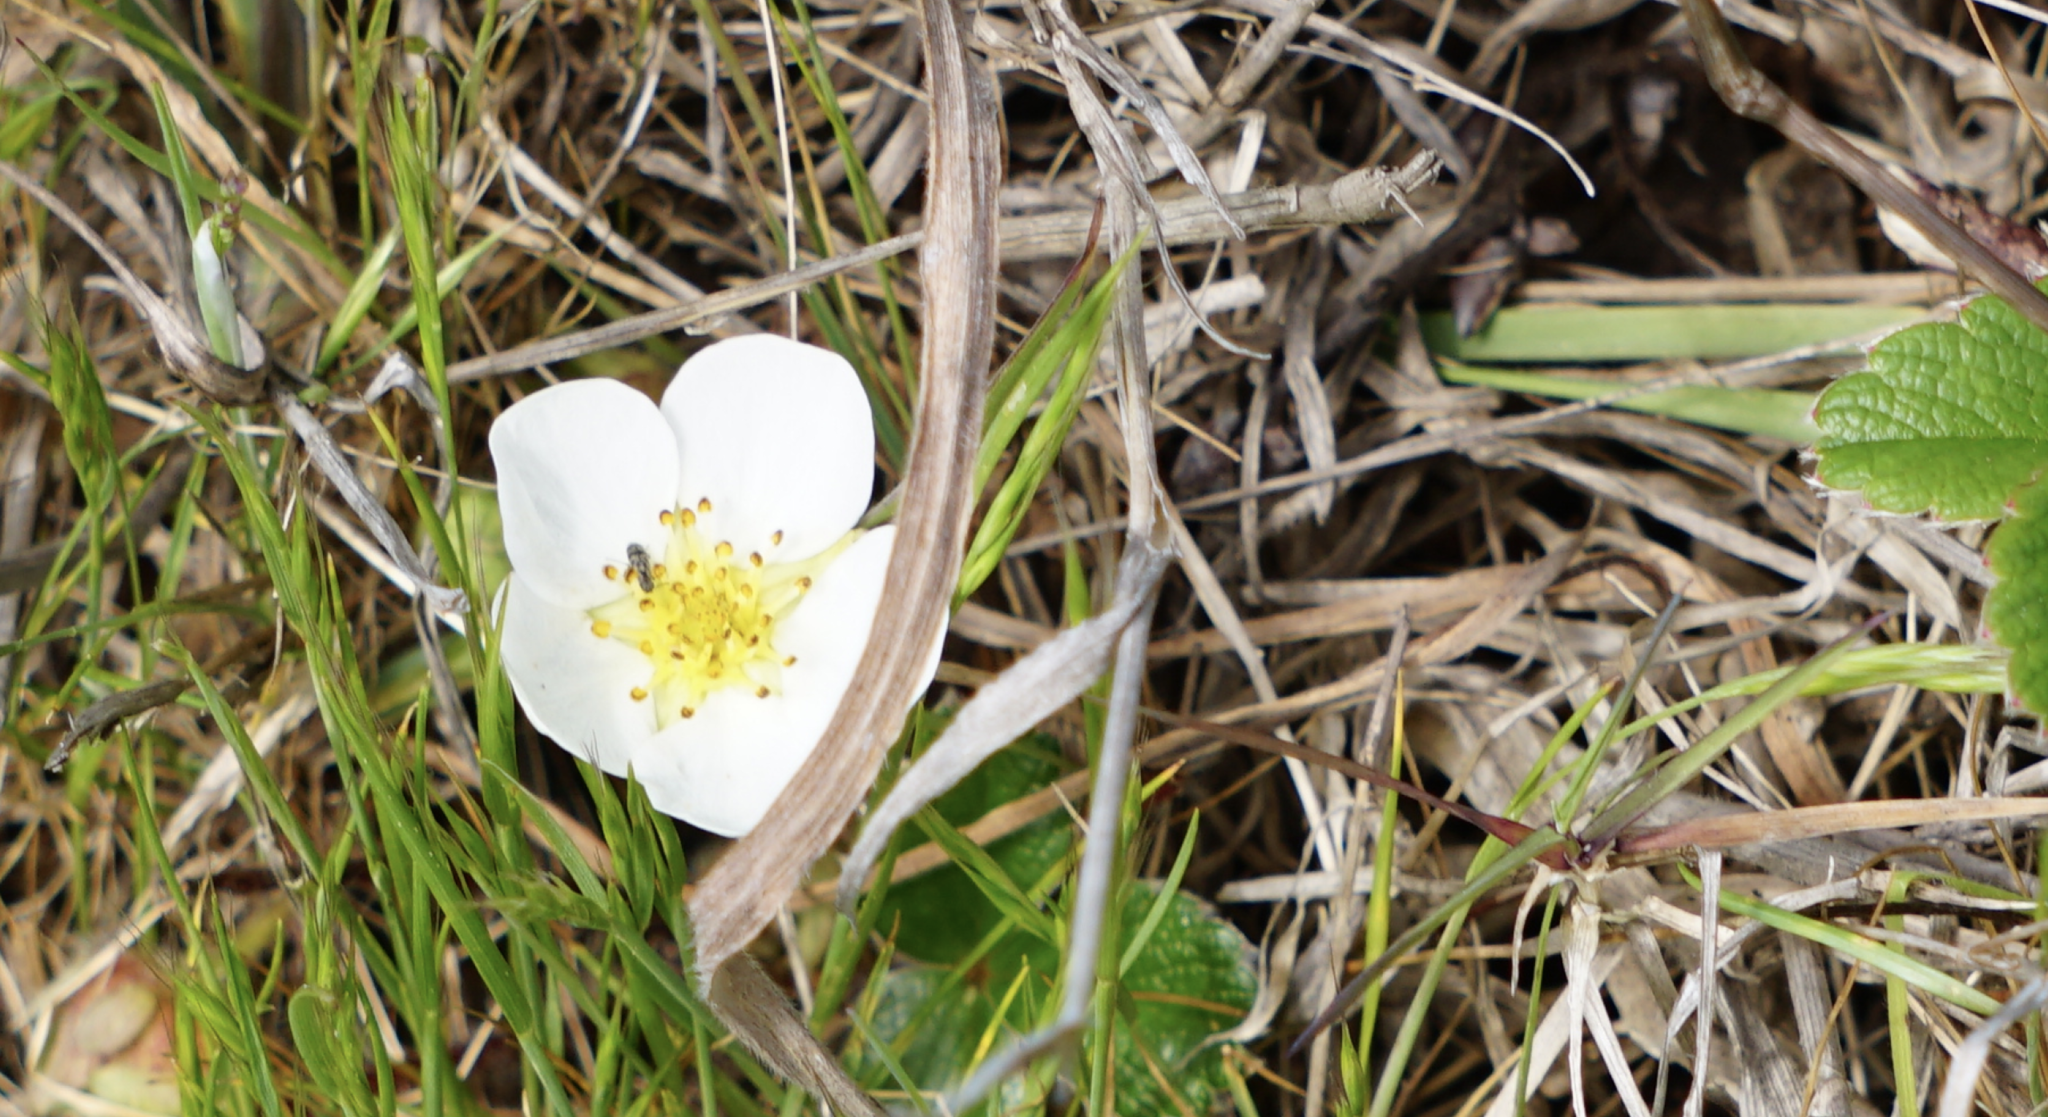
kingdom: Plantae
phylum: Tracheophyta
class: Magnoliopsida
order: Rosales
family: Rosaceae
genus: Fragaria
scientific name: Fragaria chiloensis
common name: Beach strawberry
